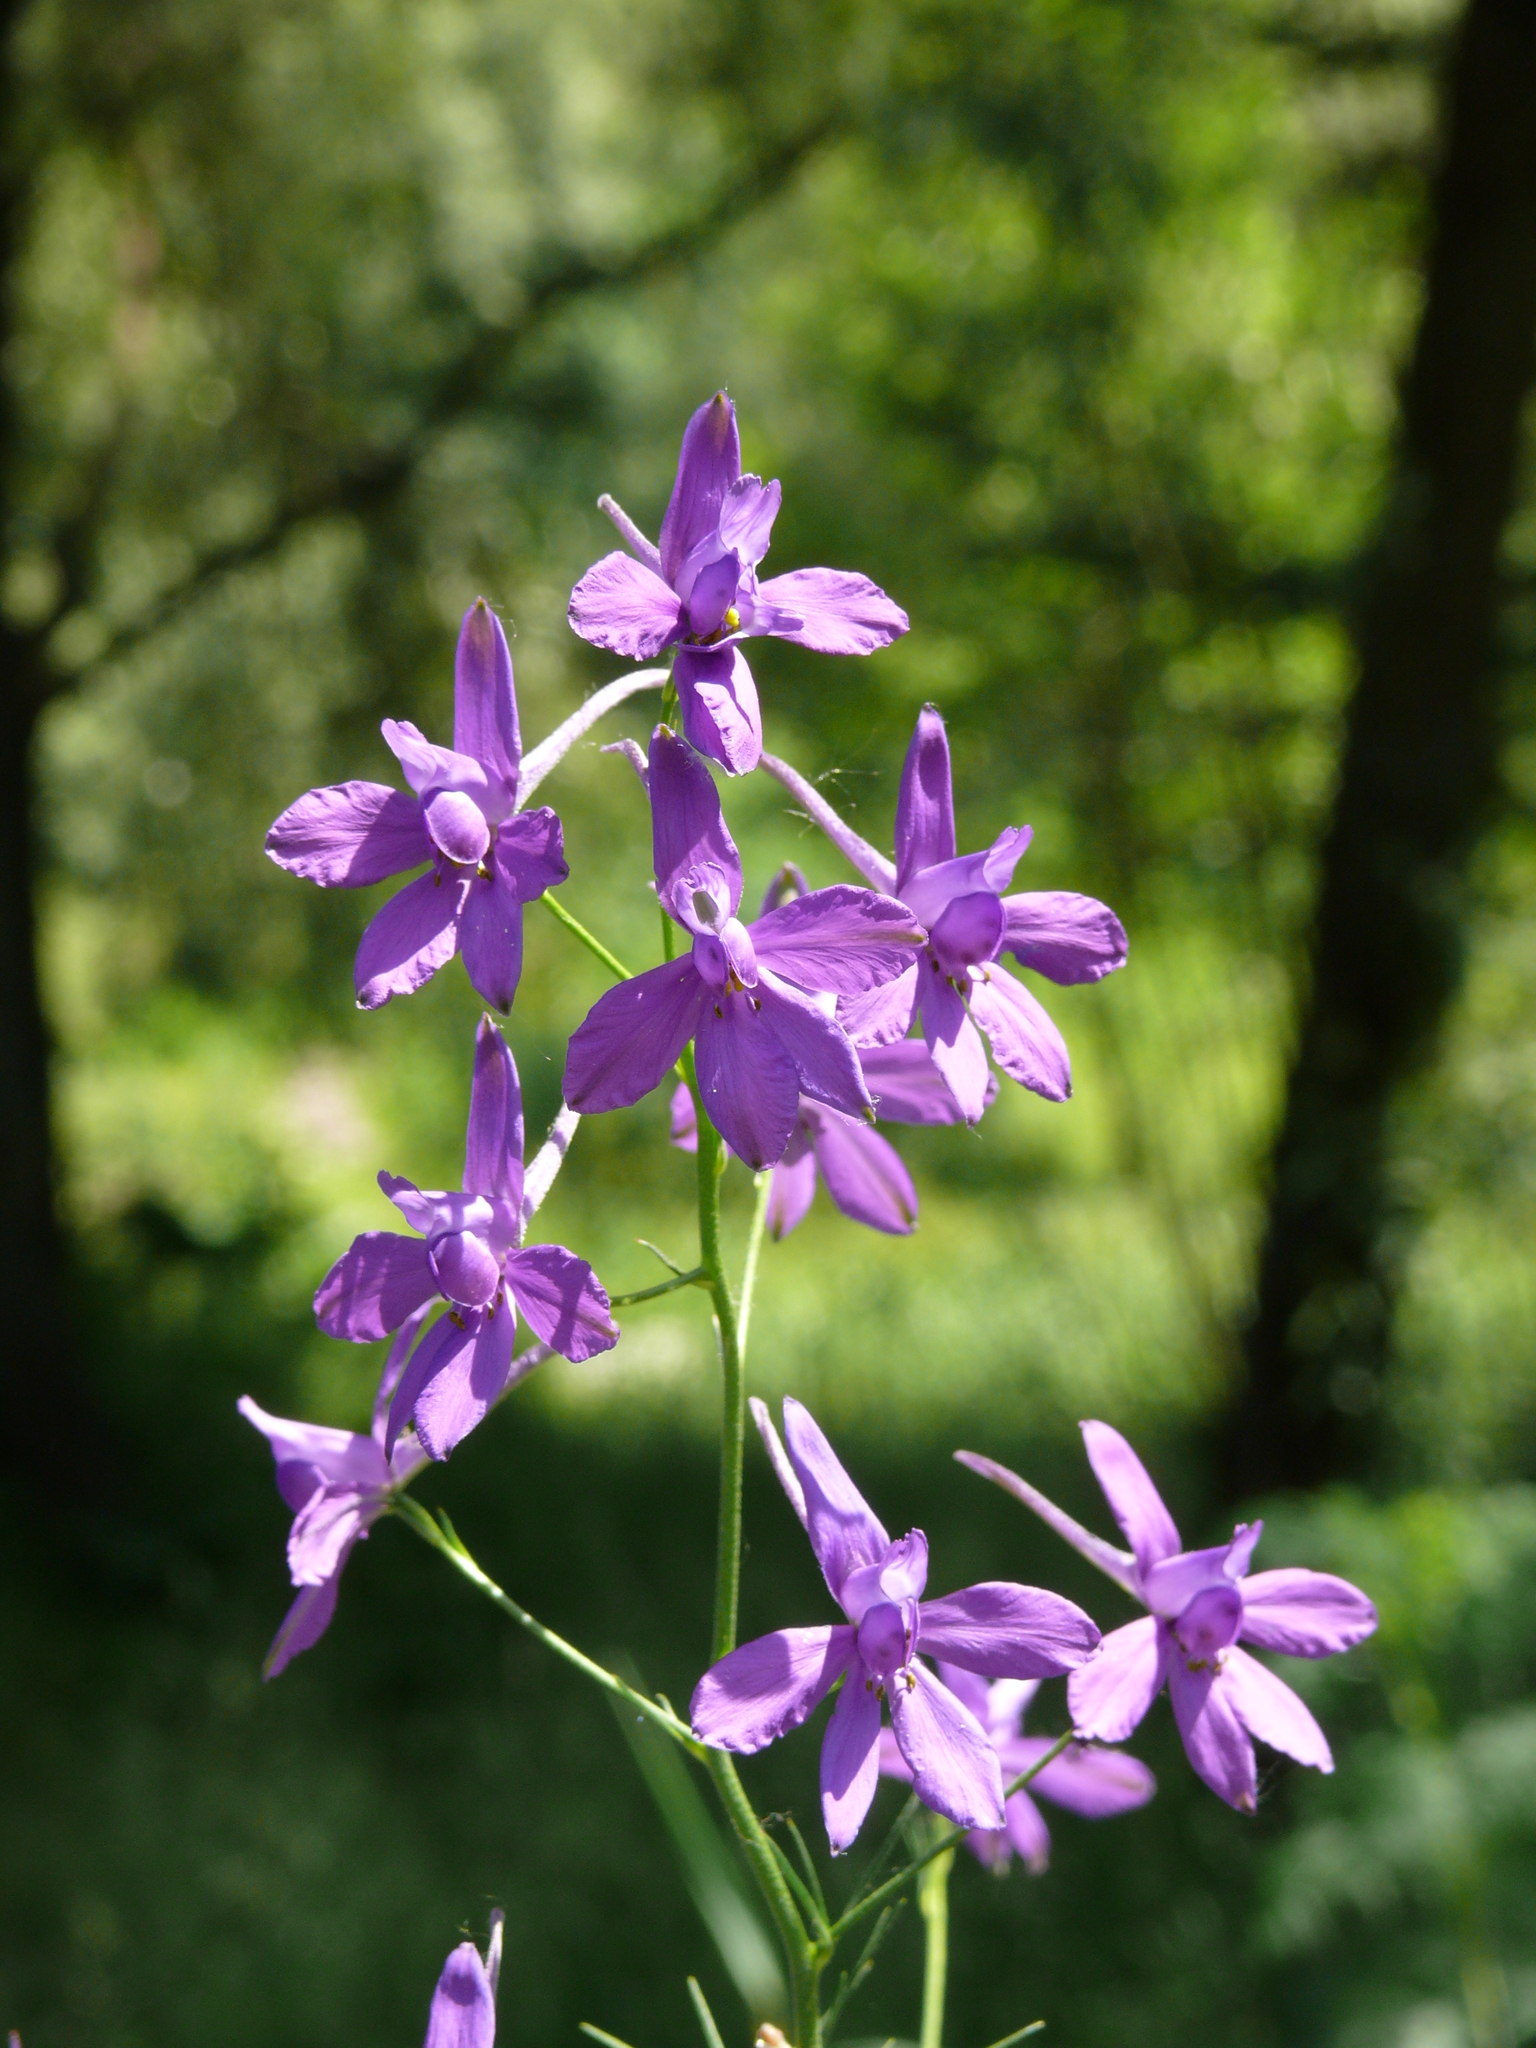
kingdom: Plantae
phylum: Tracheophyta
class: Magnoliopsida
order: Ranunculales
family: Ranunculaceae
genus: Delphinium
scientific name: Delphinium consolida
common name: Branching larkspur
